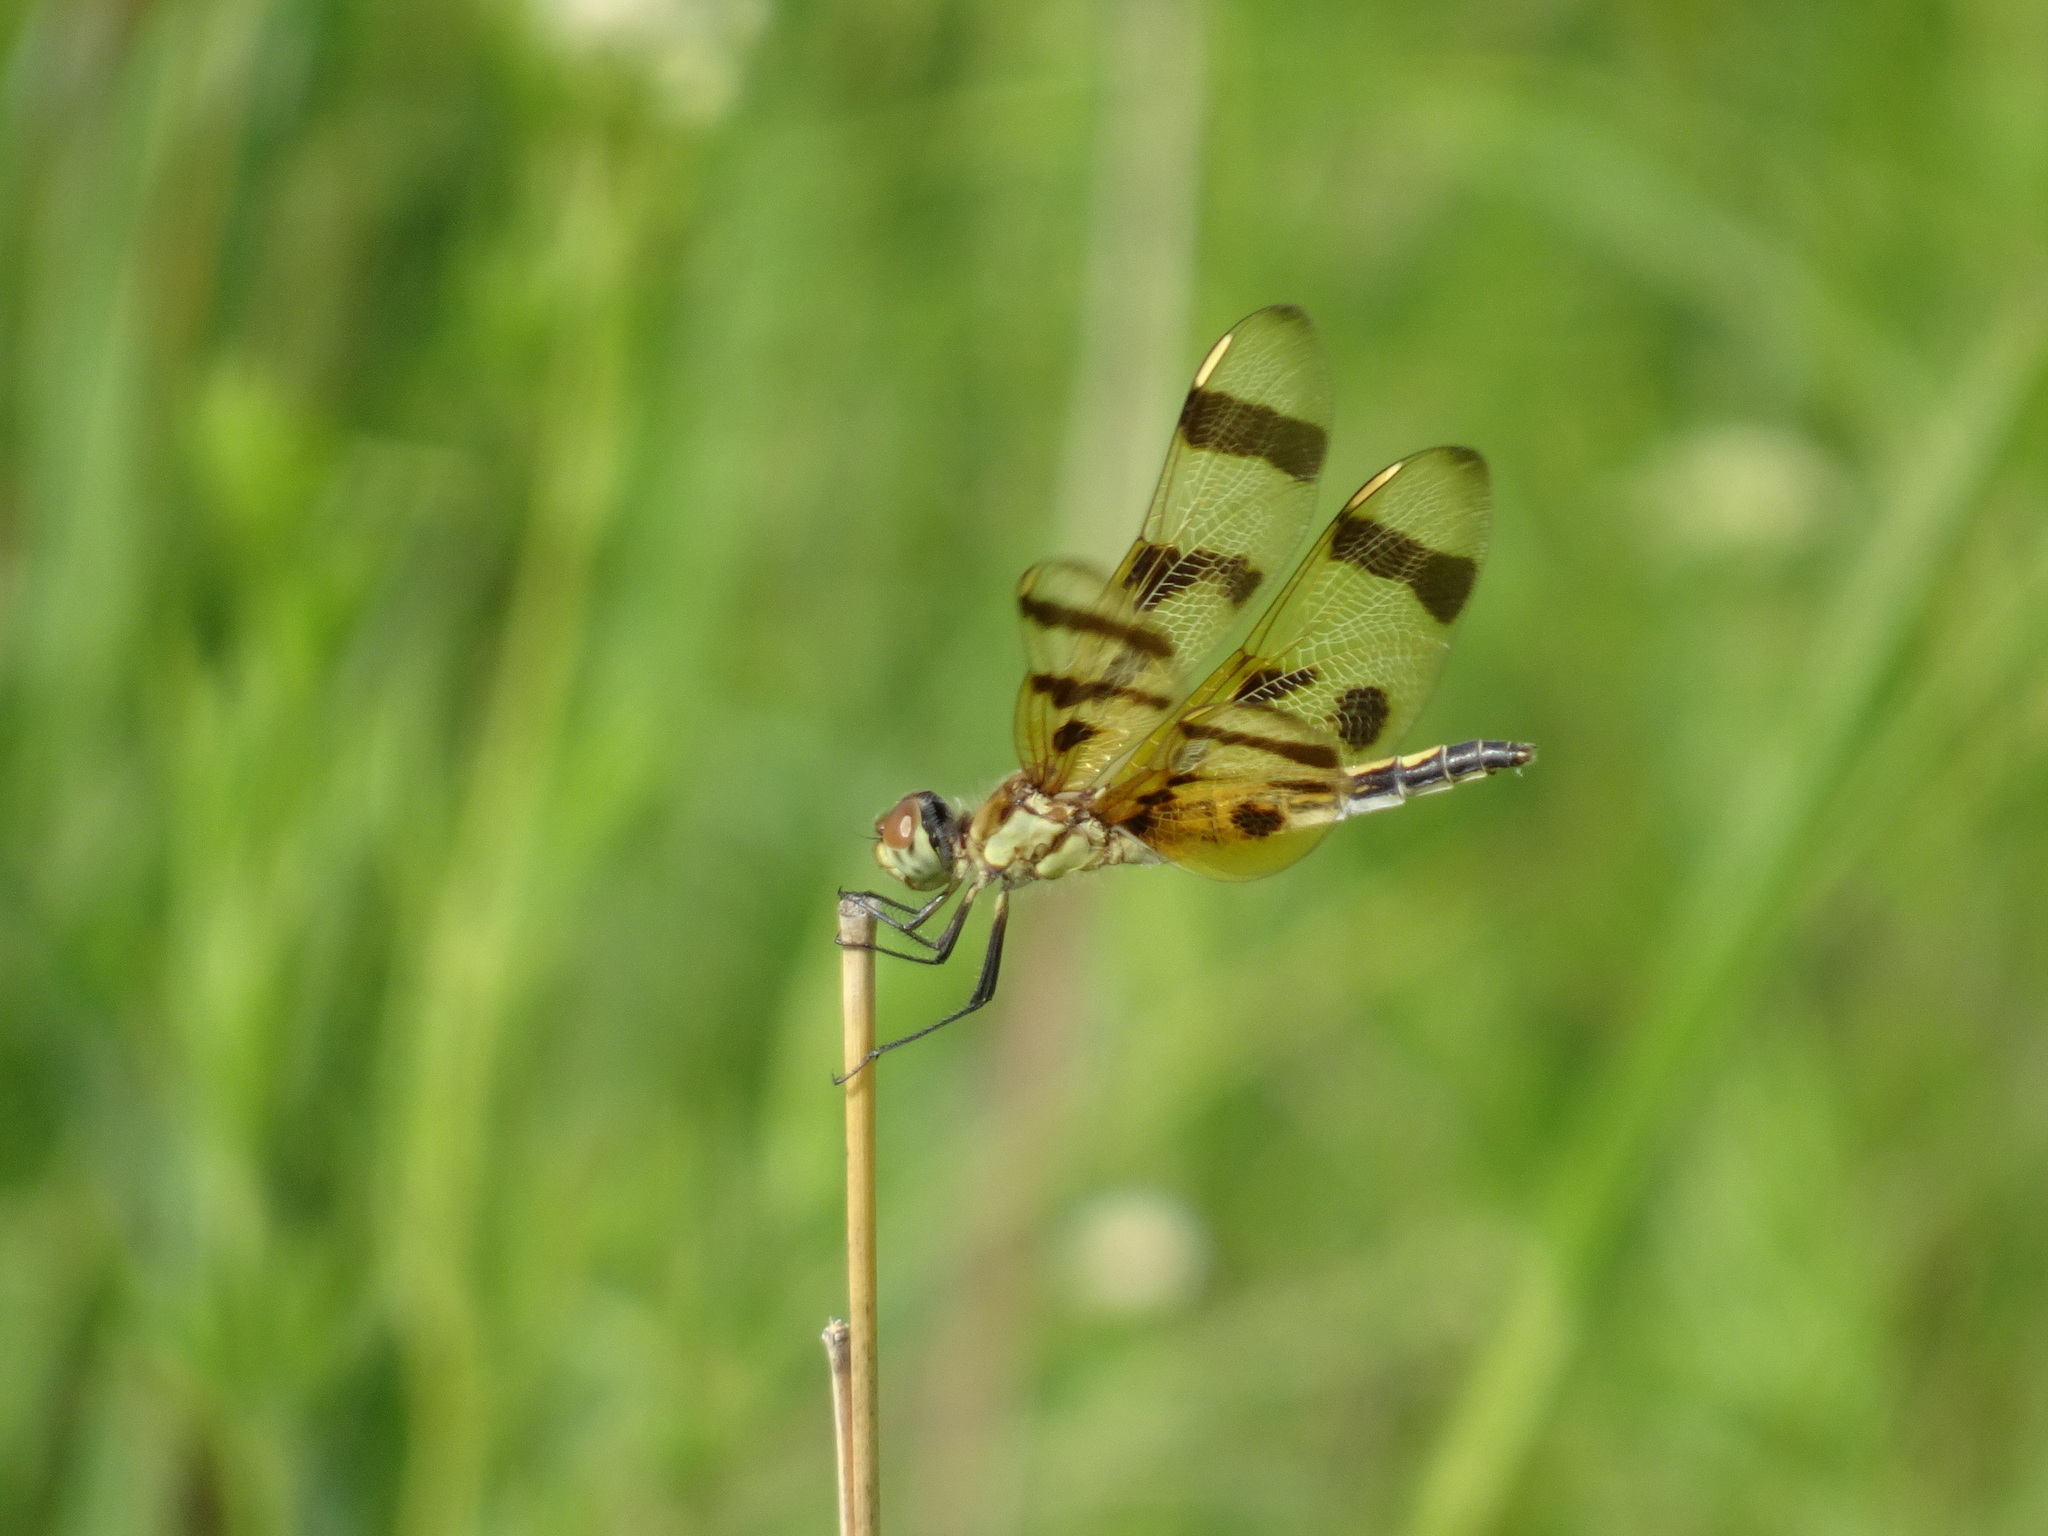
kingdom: Animalia
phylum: Arthropoda
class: Insecta
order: Odonata
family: Libellulidae
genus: Celithemis
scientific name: Celithemis eponina
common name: Halloween pennant
